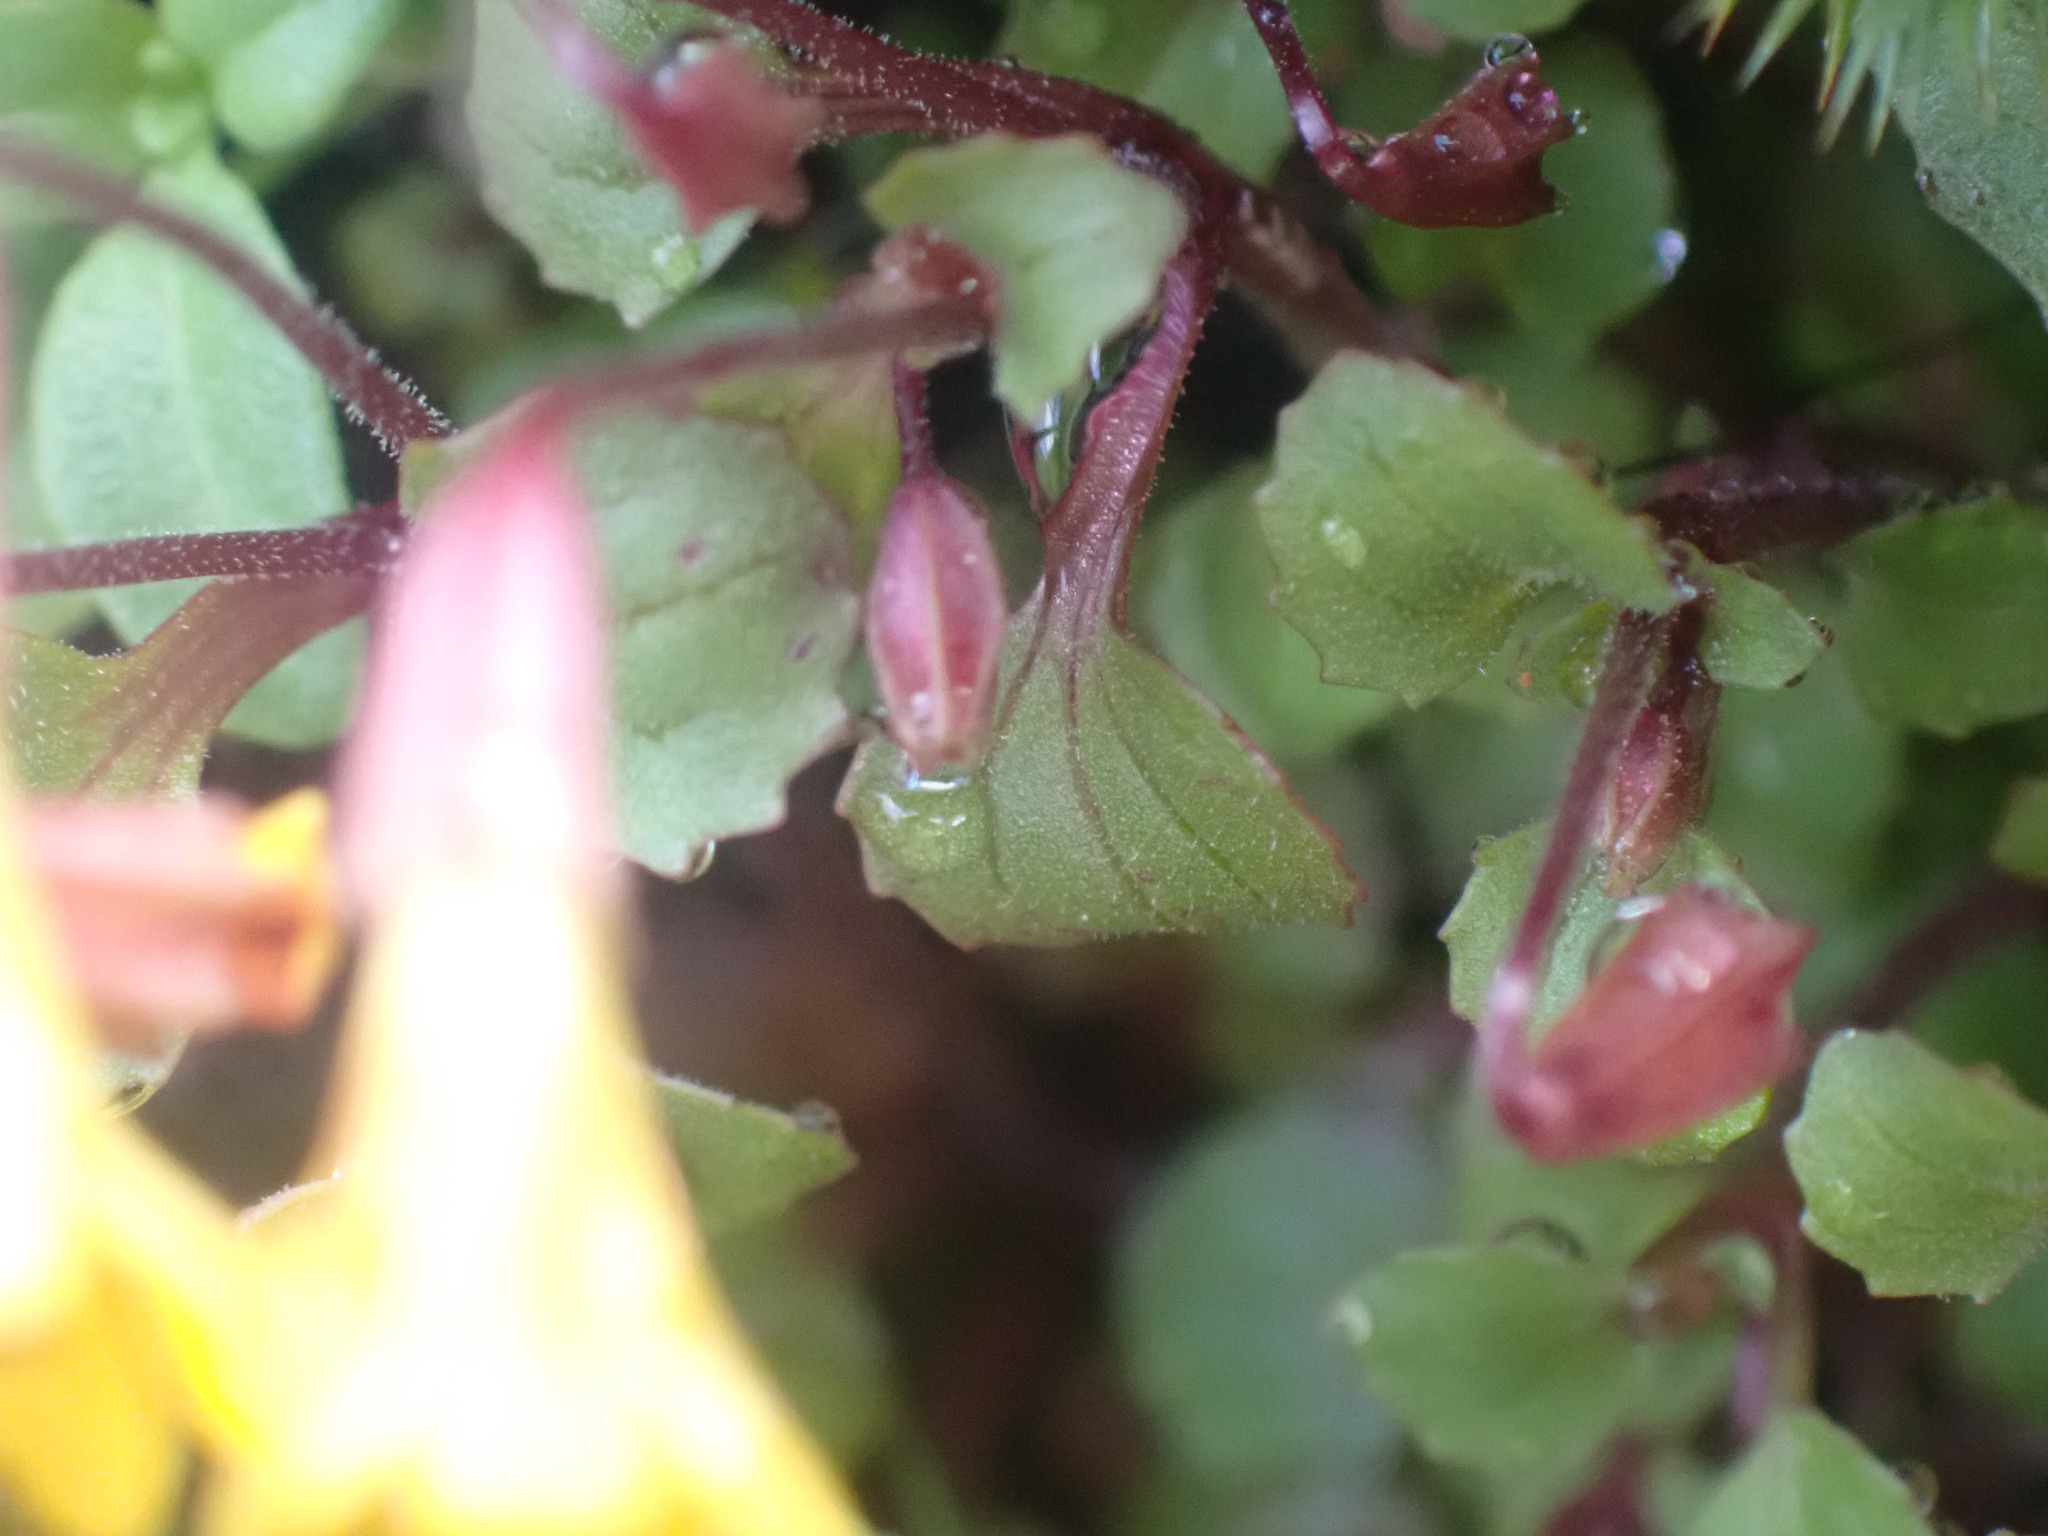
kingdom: Plantae
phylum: Tracheophyta
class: Magnoliopsida
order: Lamiales
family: Phrymaceae
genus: Erythranthe
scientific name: Erythranthe alsinoides
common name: Chickweed monkeyflower
